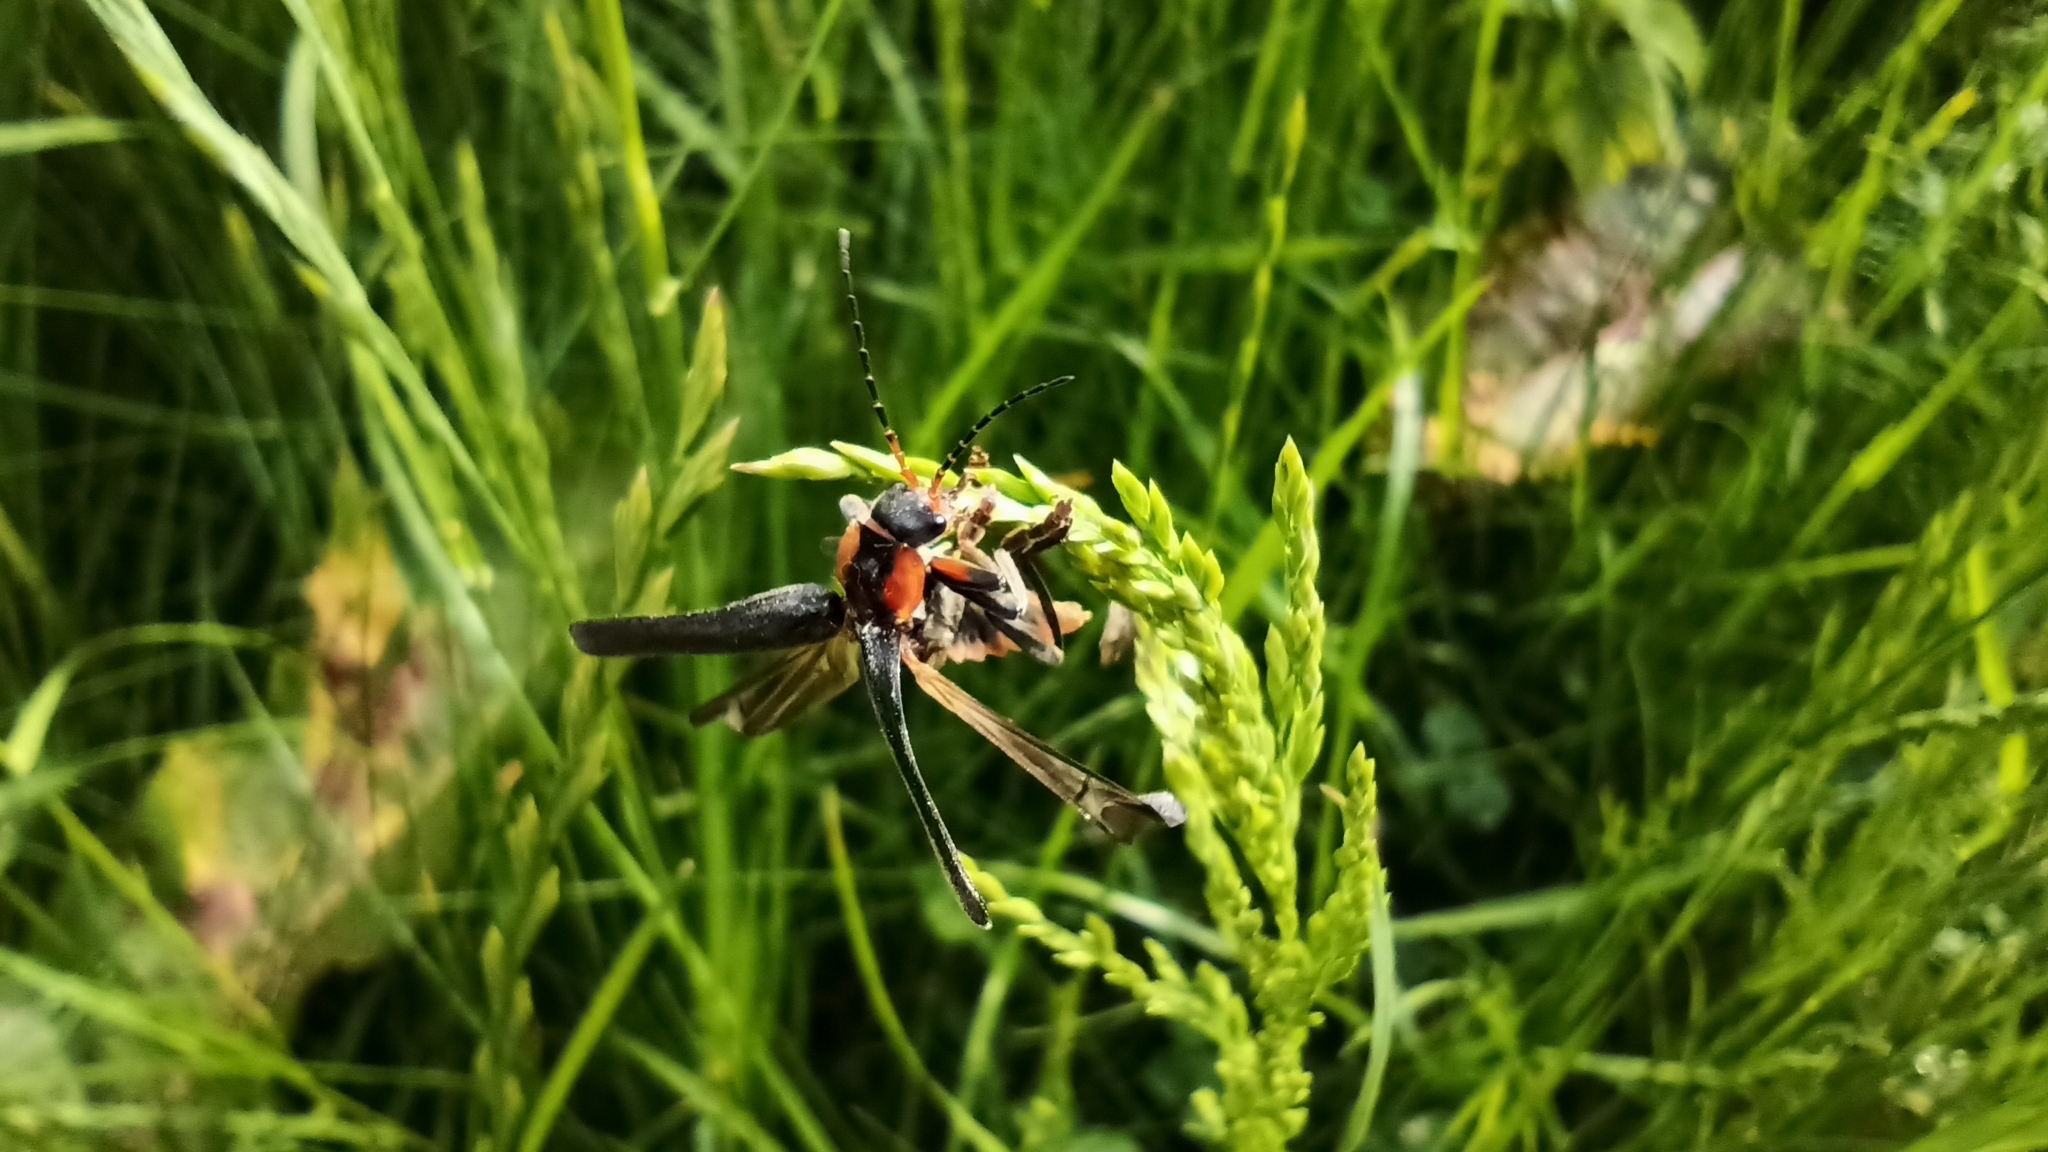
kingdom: Animalia
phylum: Arthropoda
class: Insecta
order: Coleoptera
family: Cantharidae
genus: Cantharis
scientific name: Cantharis fusca
